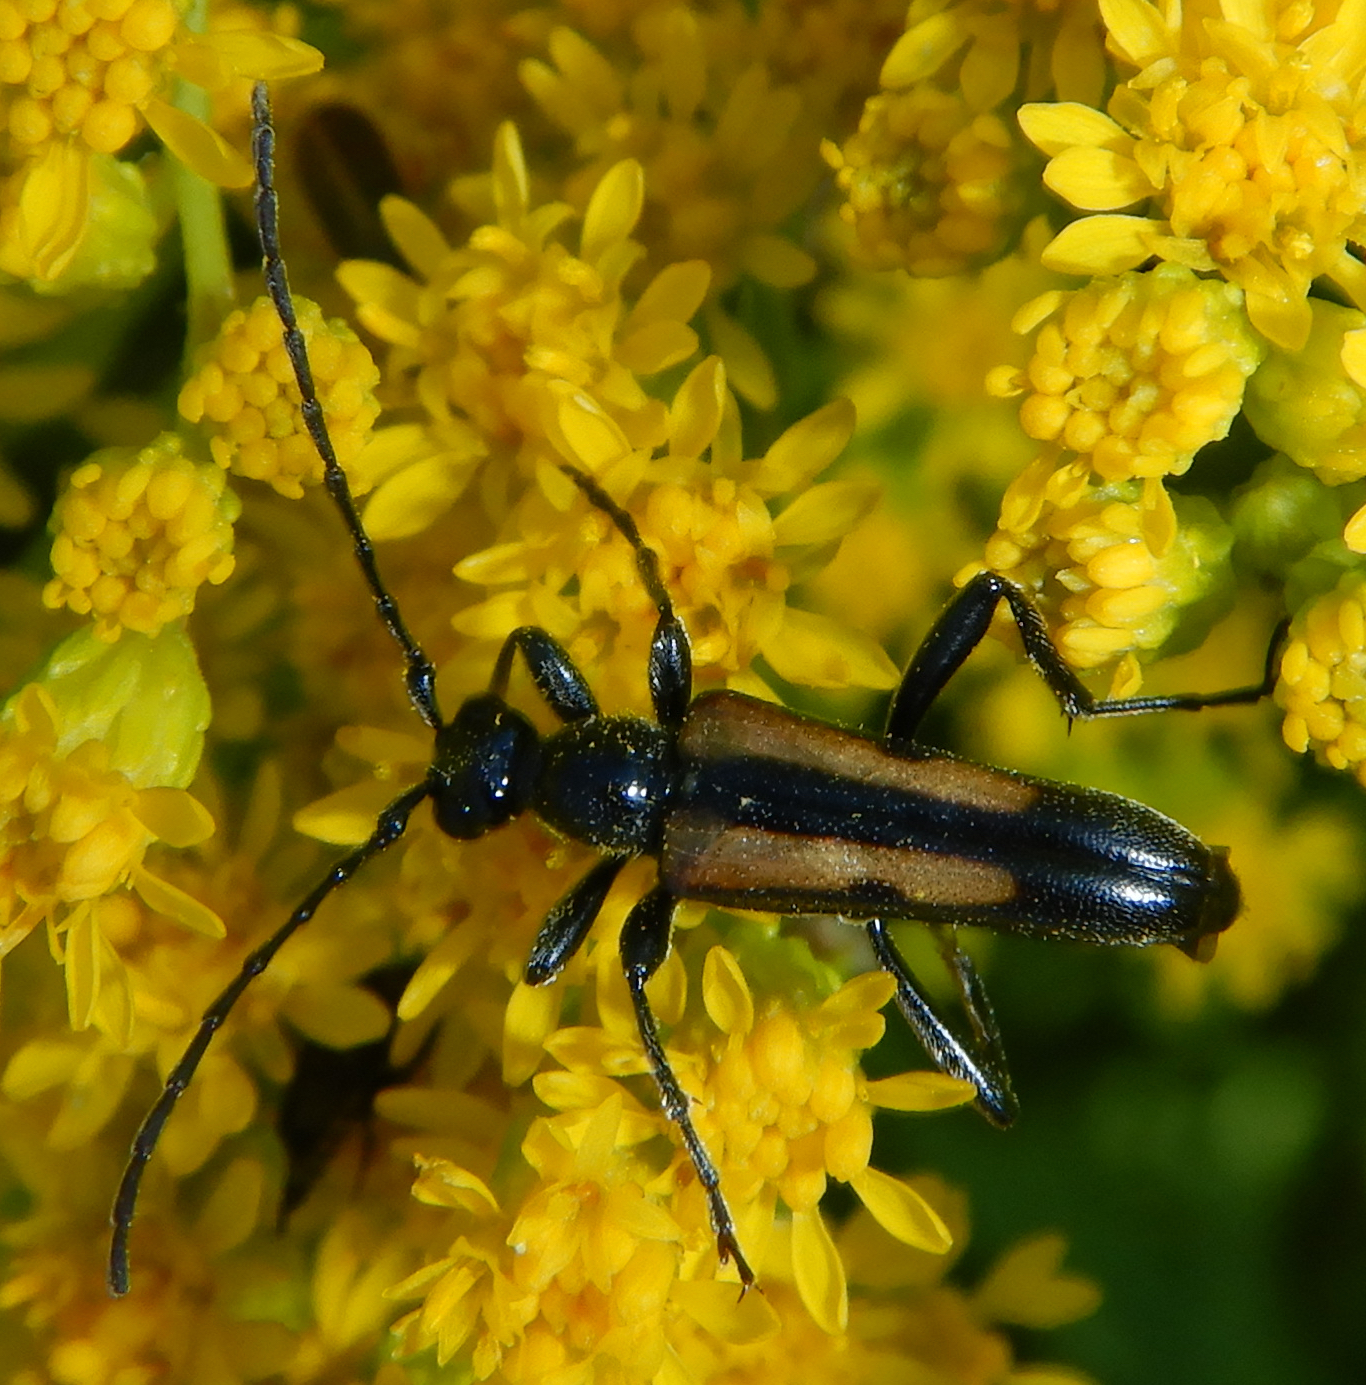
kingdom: Animalia
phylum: Arthropoda
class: Insecta
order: Coleoptera
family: Cerambycidae
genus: Strangalepta
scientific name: Strangalepta abbreviata
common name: Strangalepta flower longhorn beetle
